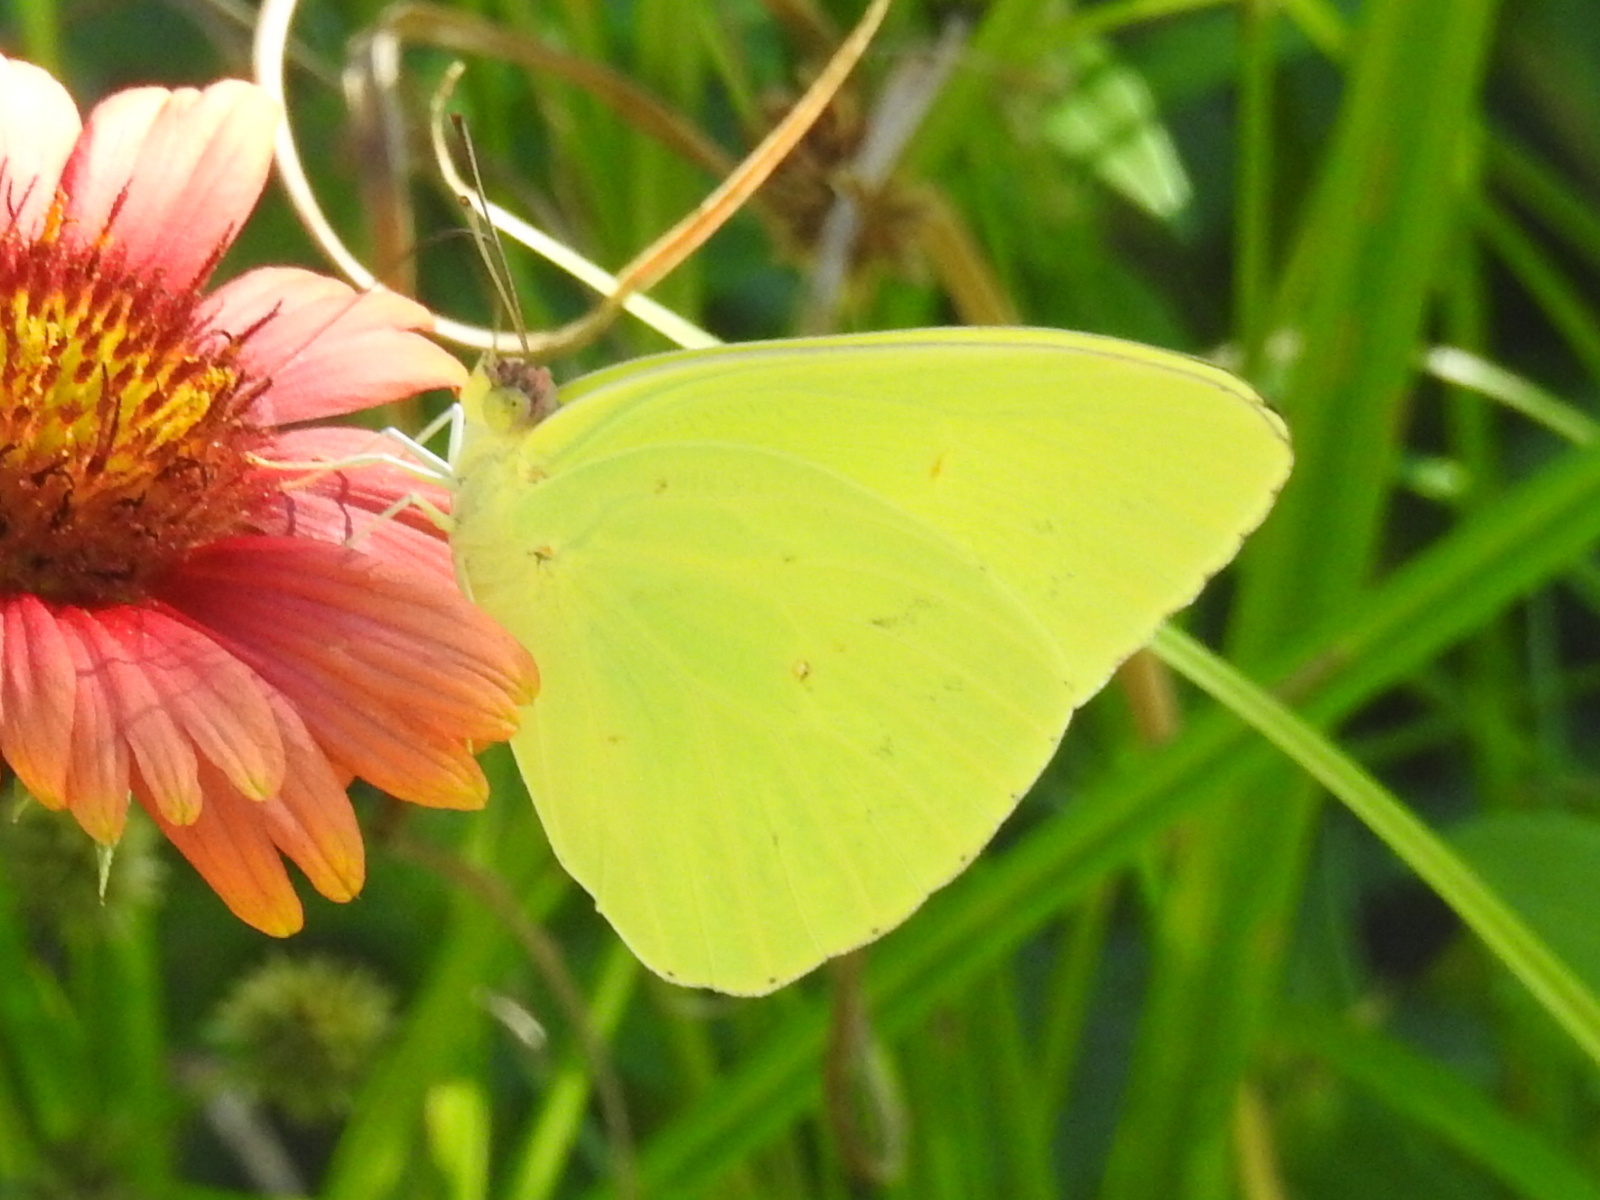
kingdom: Animalia
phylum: Arthropoda
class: Insecta
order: Lepidoptera
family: Pieridae
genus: Phoebis
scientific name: Phoebis sennae
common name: Cloudless sulphur
